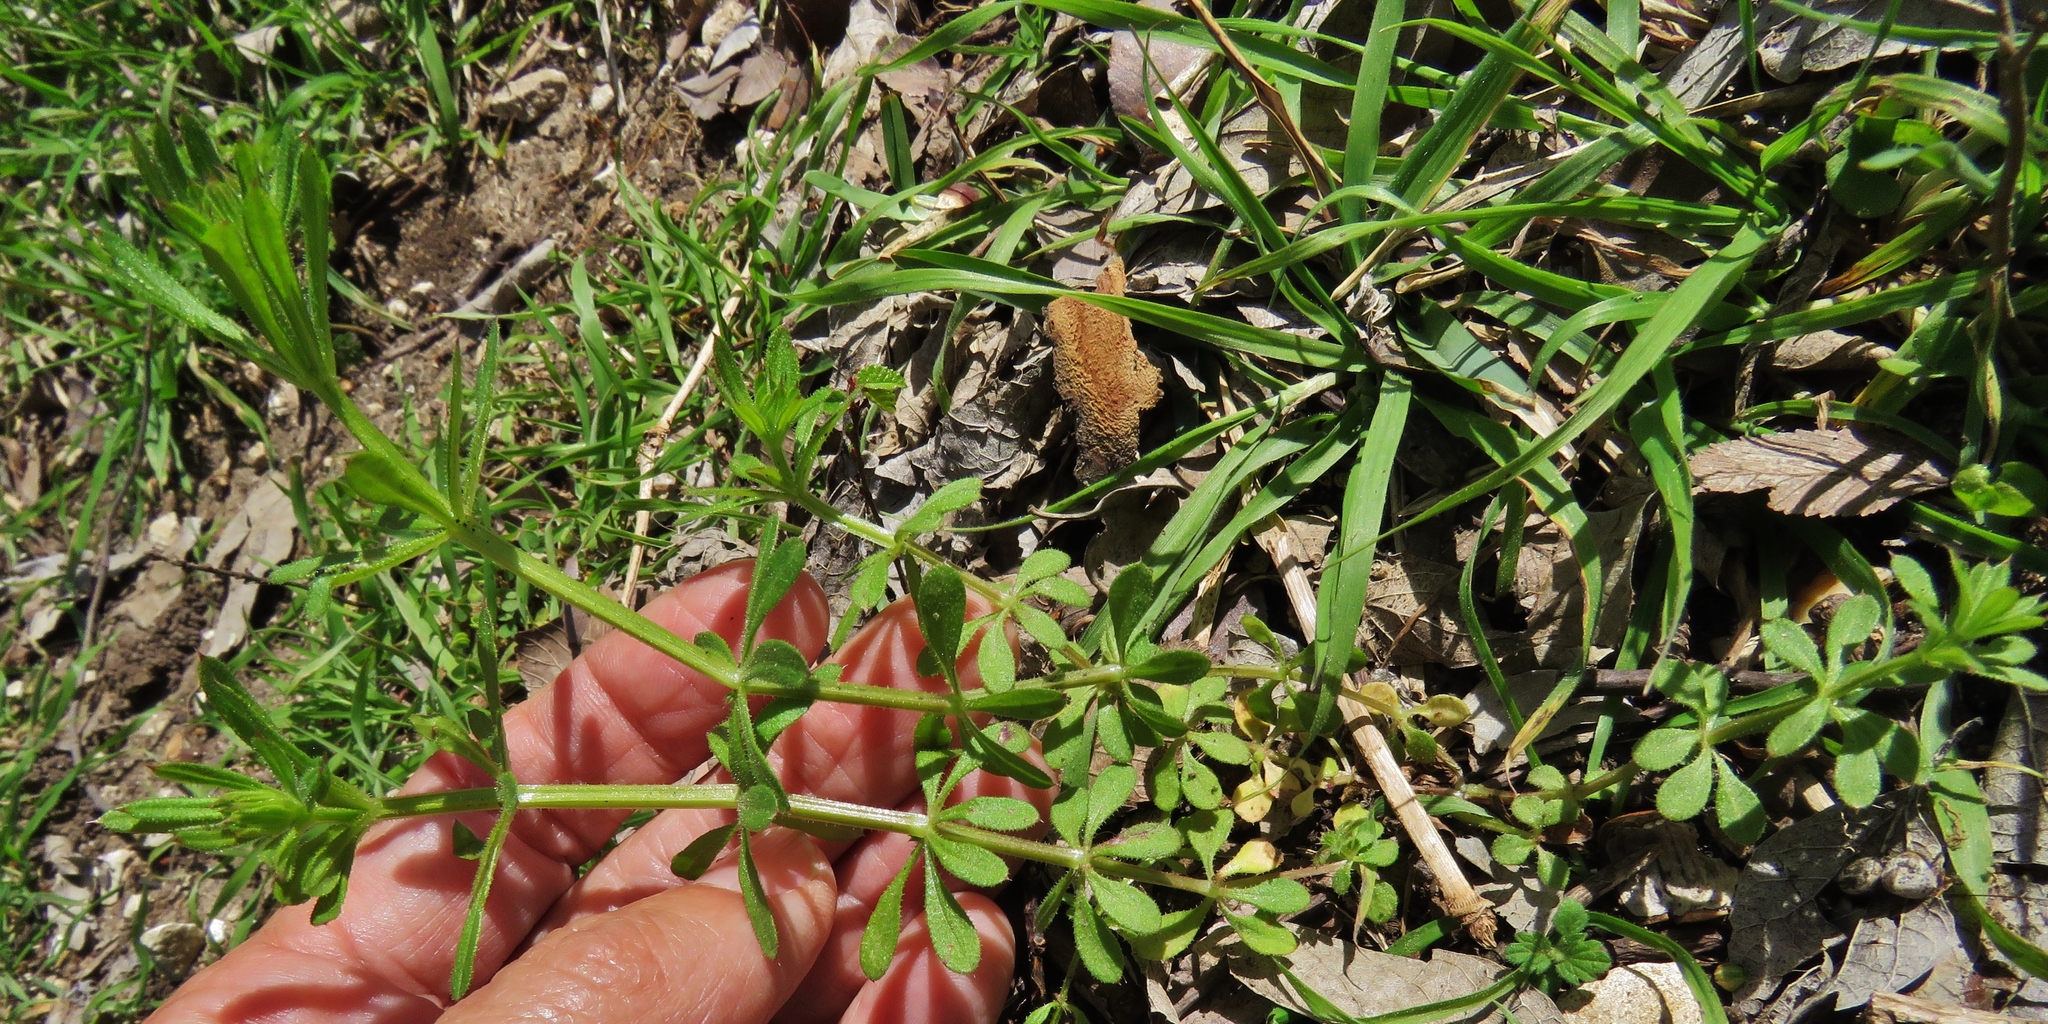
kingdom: Plantae
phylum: Tracheophyta
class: Magnoliopsida
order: Gentianales
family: Rubiaceae
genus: Galium
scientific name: Galium aparine
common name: Cleavers
